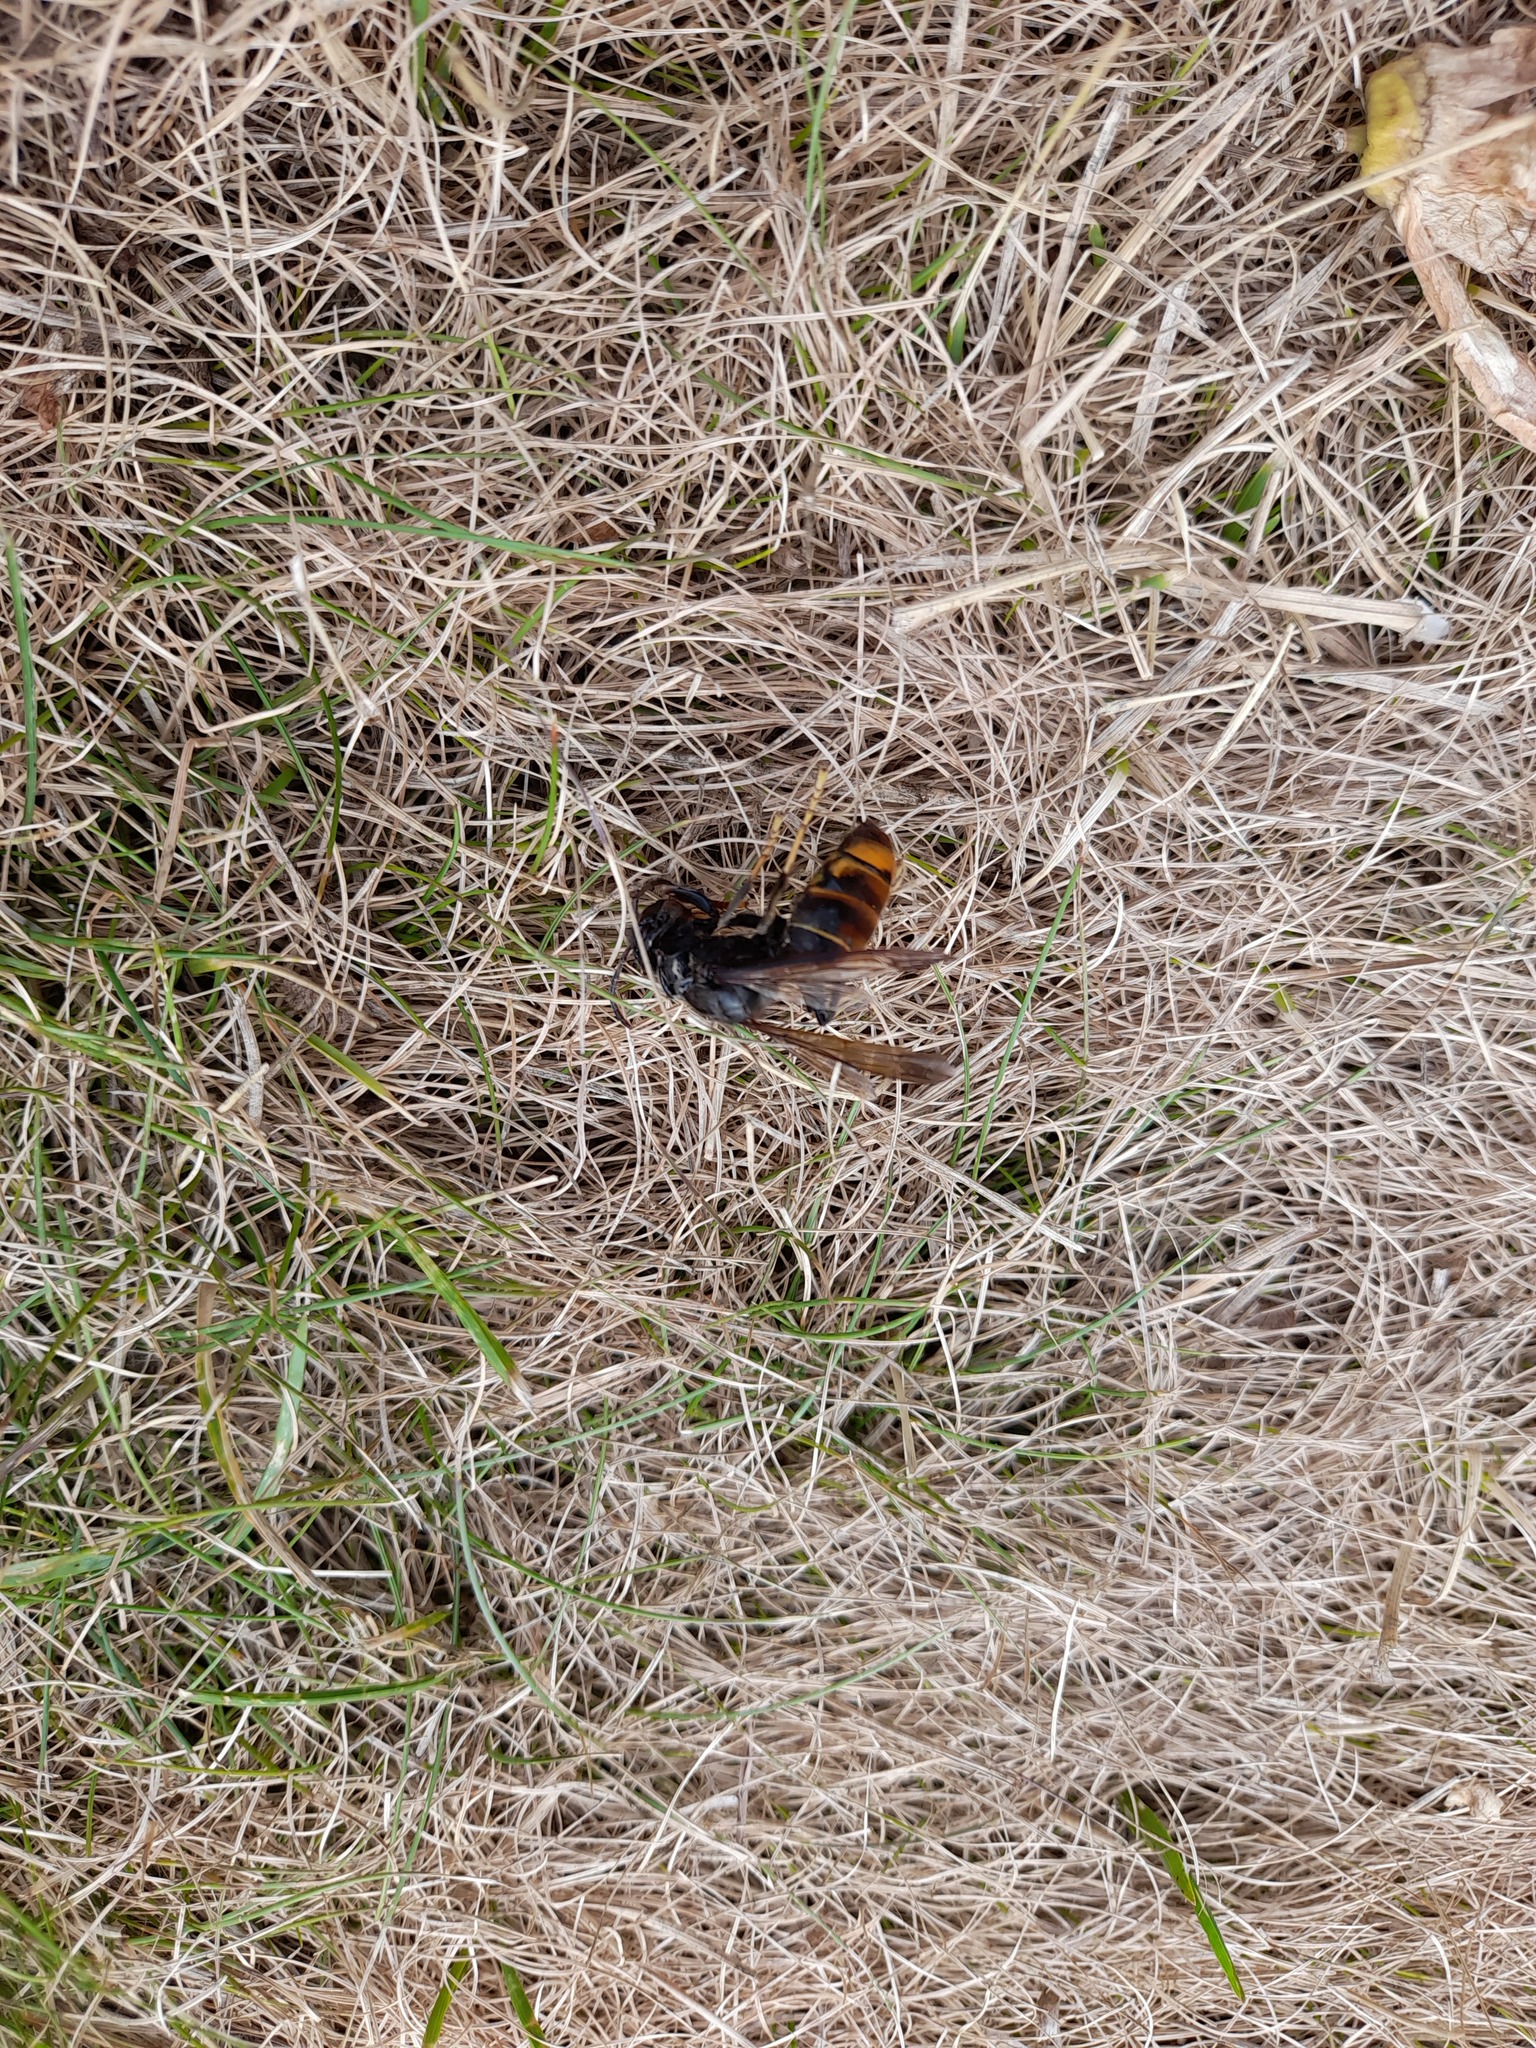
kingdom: Animalia
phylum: Arthropoda
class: Insecta
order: Hymenoptera
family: Vespidae
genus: Vespa
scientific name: Vespa velutina
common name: Asian hornet
